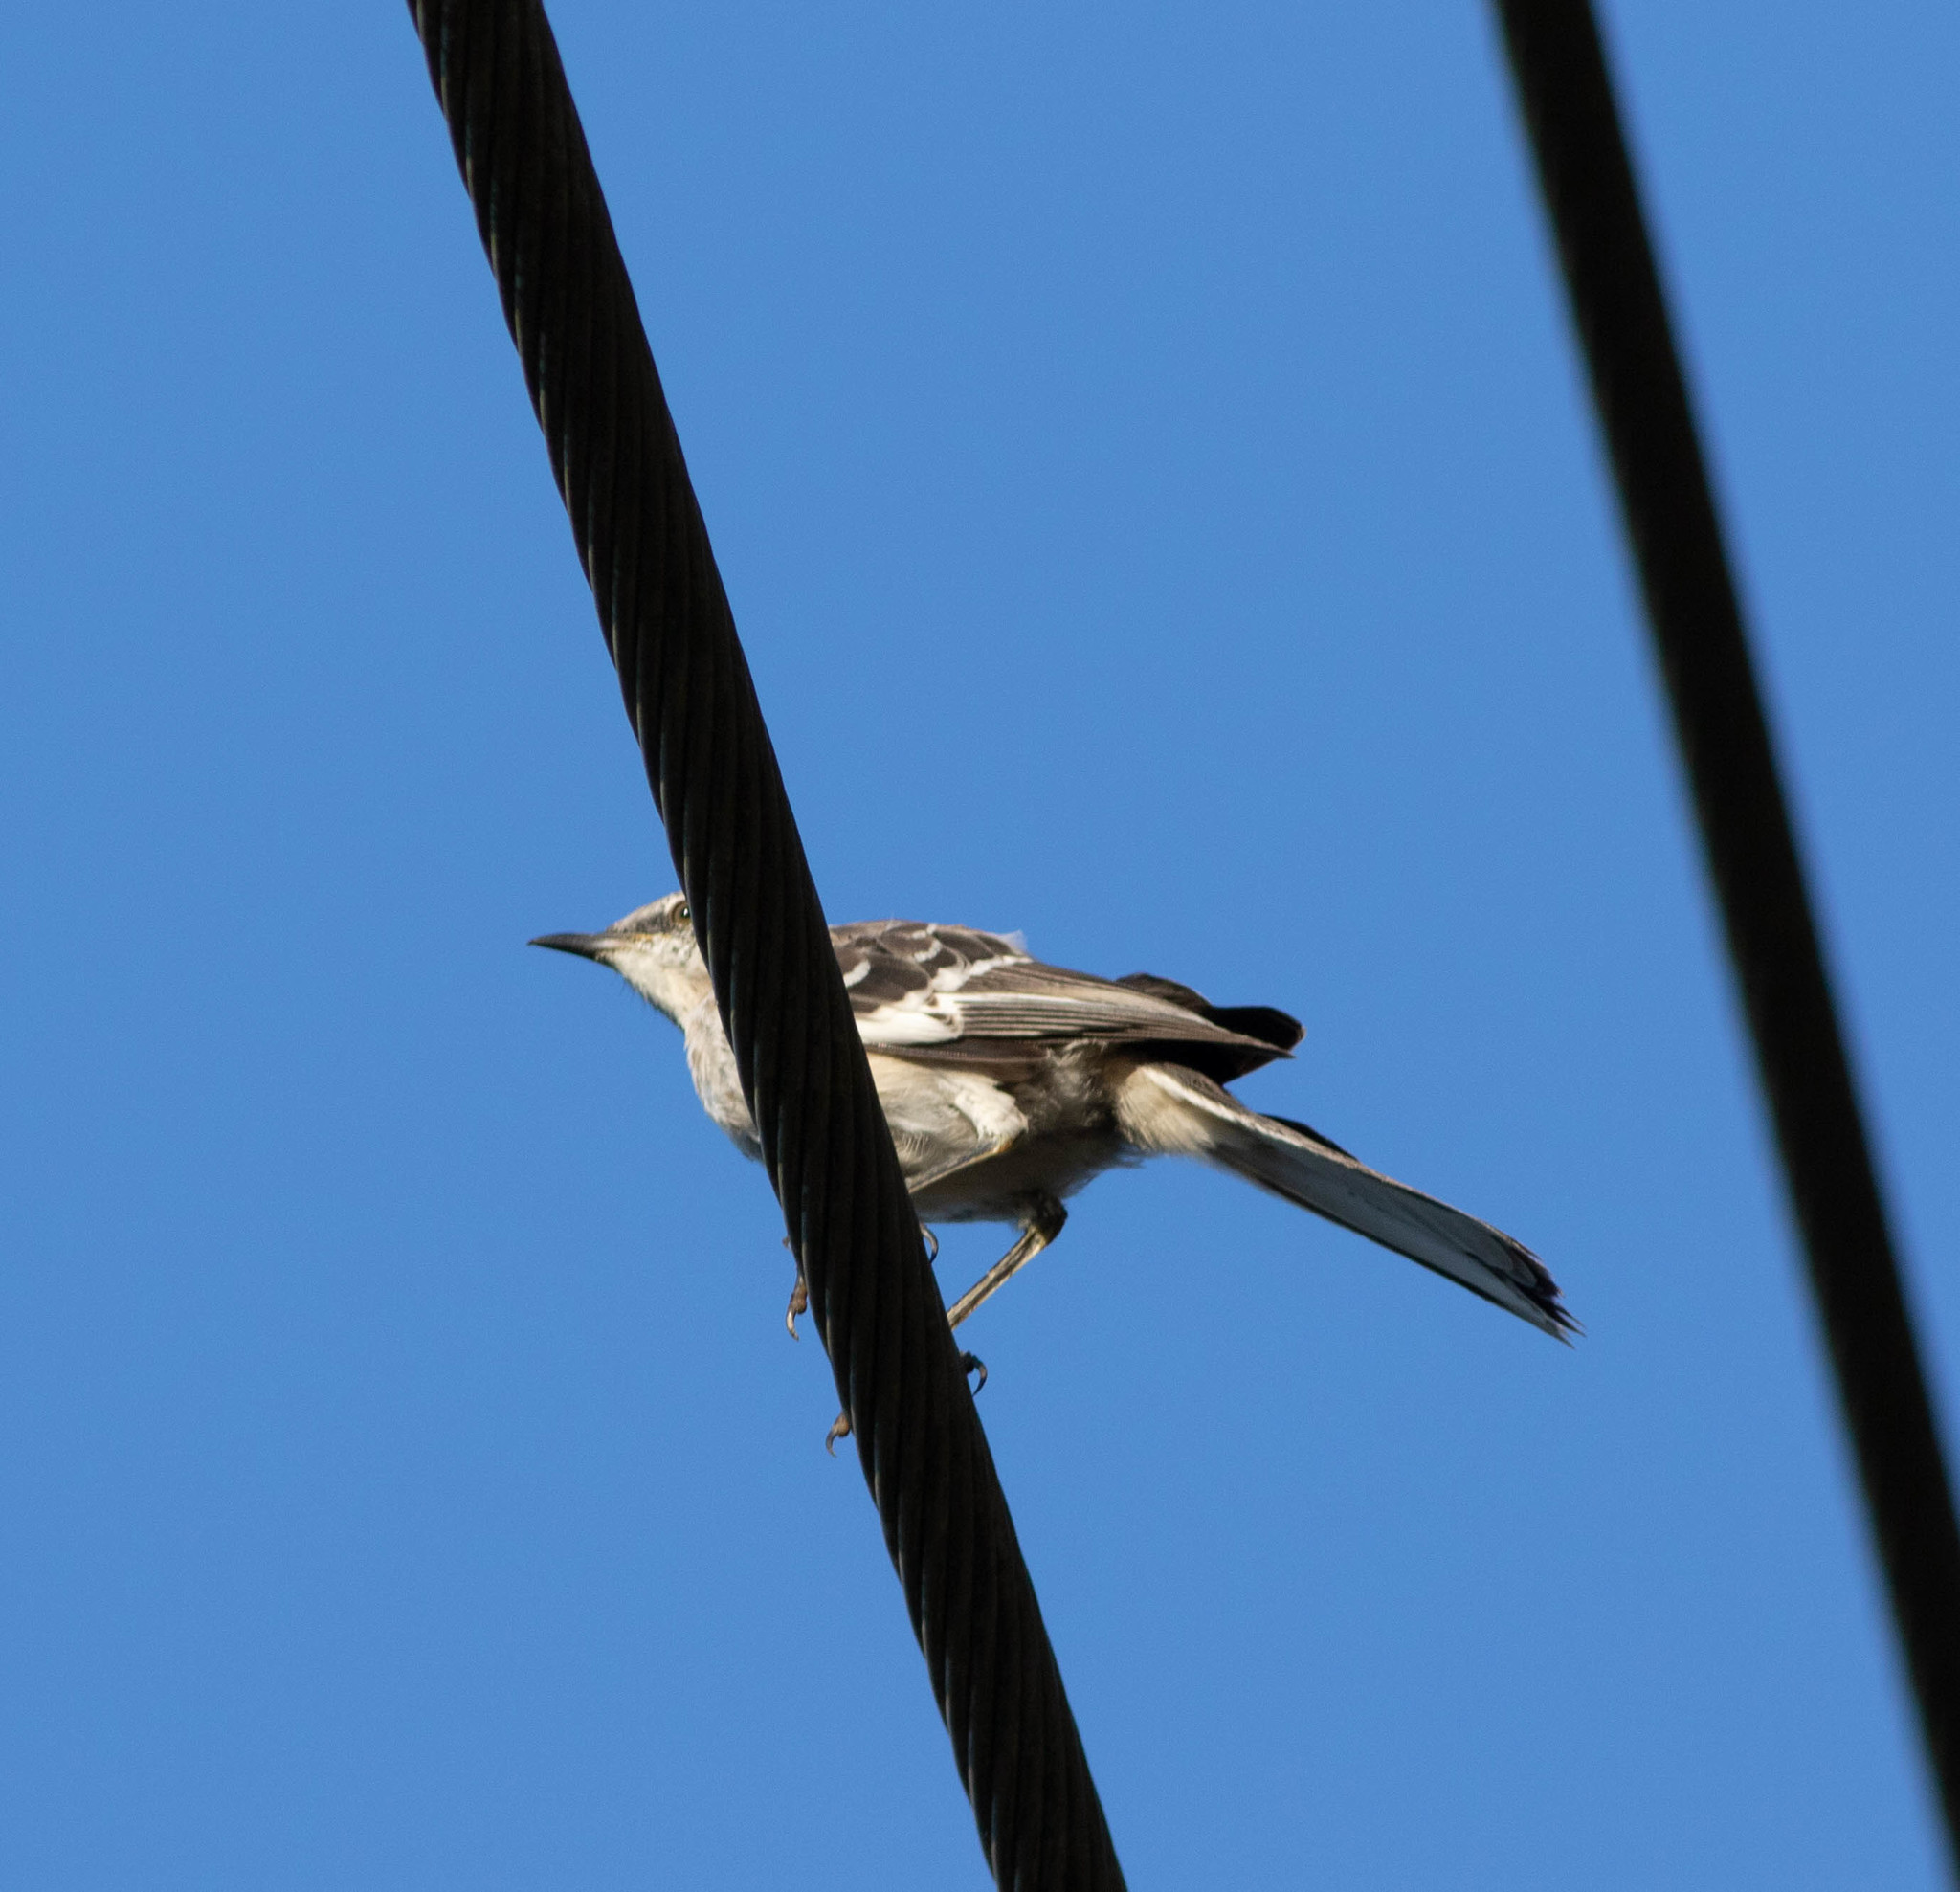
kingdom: Animalia
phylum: Chordata
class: Aves
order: Passeriformes
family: Mimidae
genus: Mimus
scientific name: Mimus polyglottos
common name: Northern mockingbird
